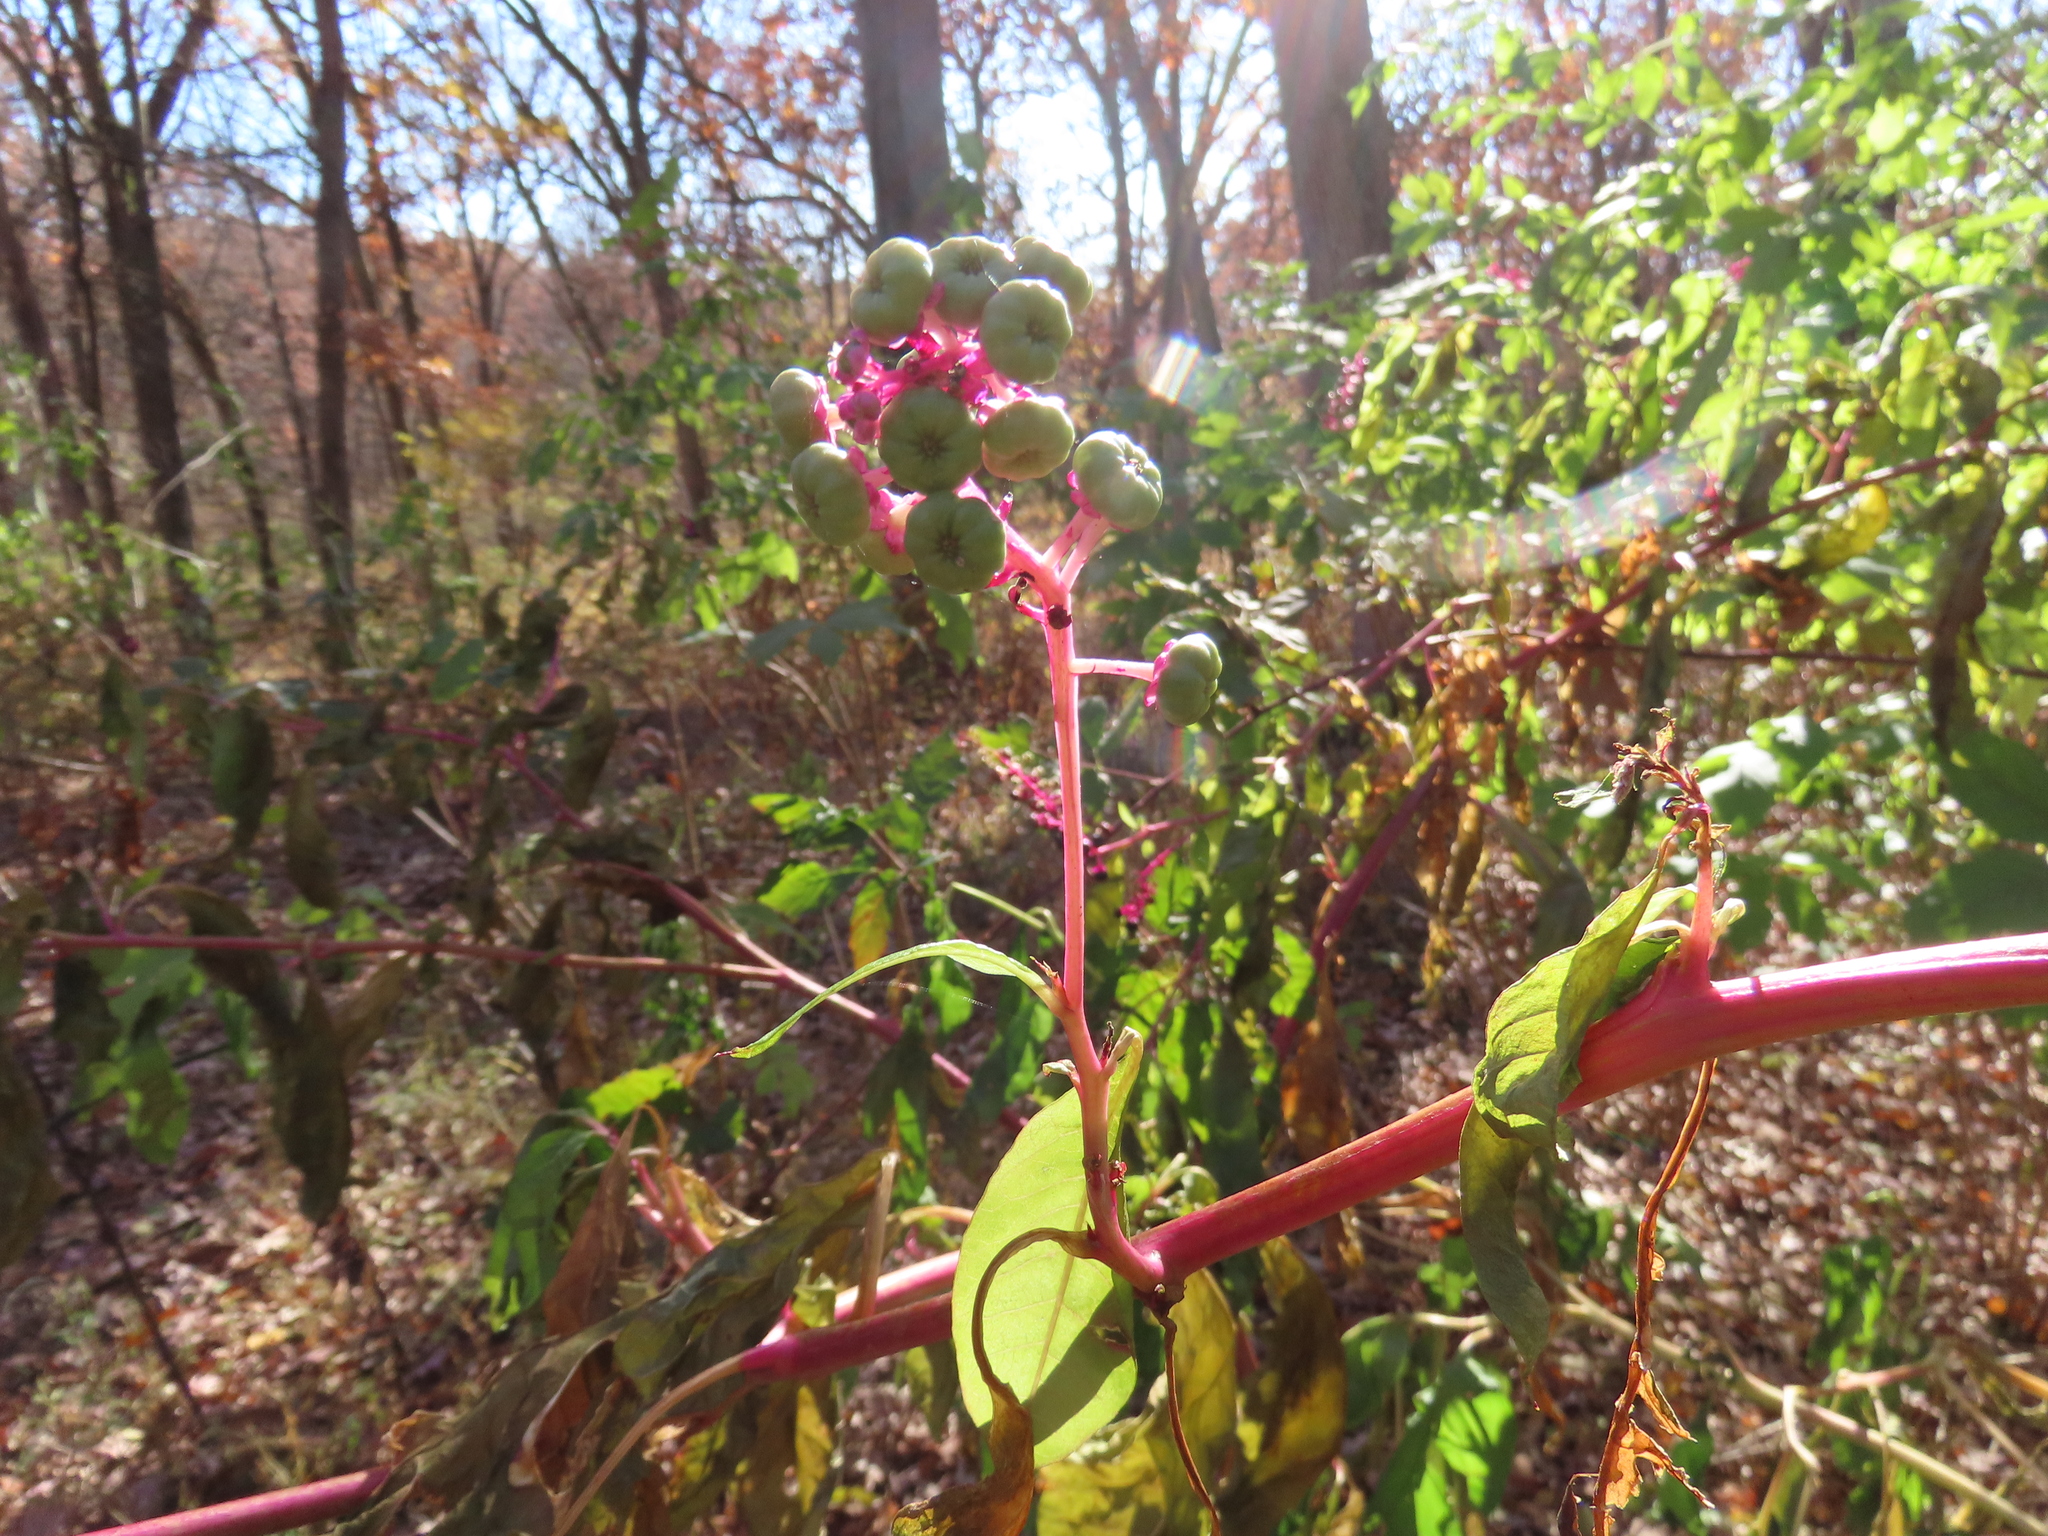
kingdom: Plantae
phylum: Tracheophyta
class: Magnoliopsida
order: Caryophyllales
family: Phytolaccaceae
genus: Phytolacca
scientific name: Phytolacca americana
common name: American pokeweed
